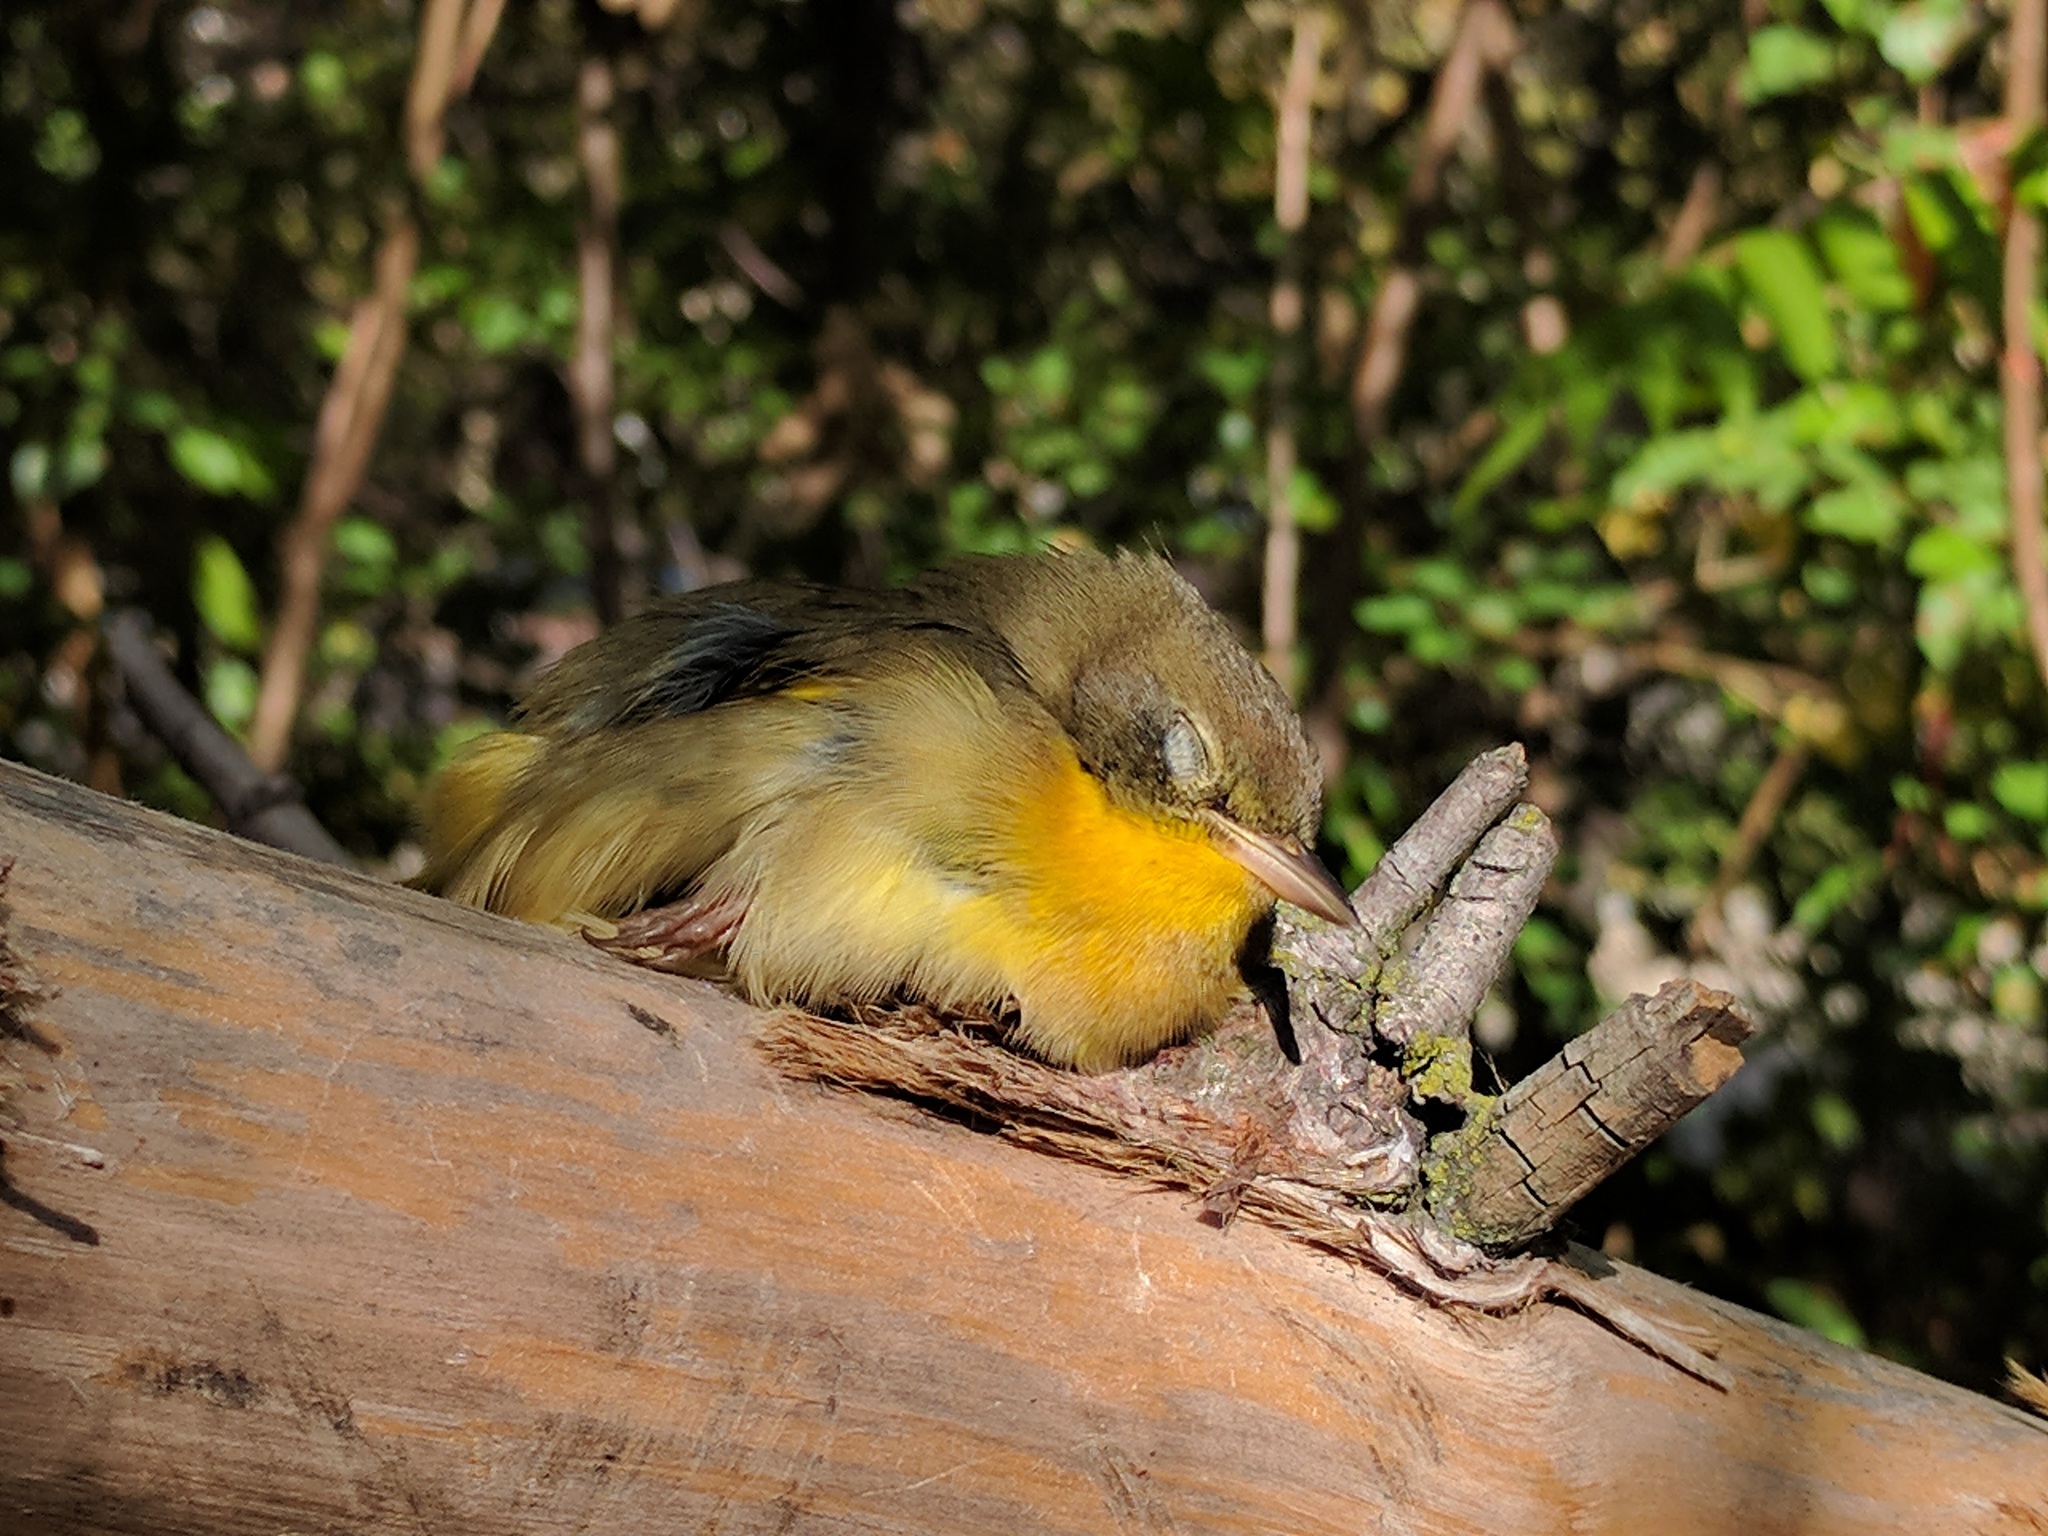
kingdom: Animalia
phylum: Chordata
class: Aves
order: Passeriformes
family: Parulidae
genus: Geothlypis
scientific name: Geothlypis trichas
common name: Common yellowthroat
